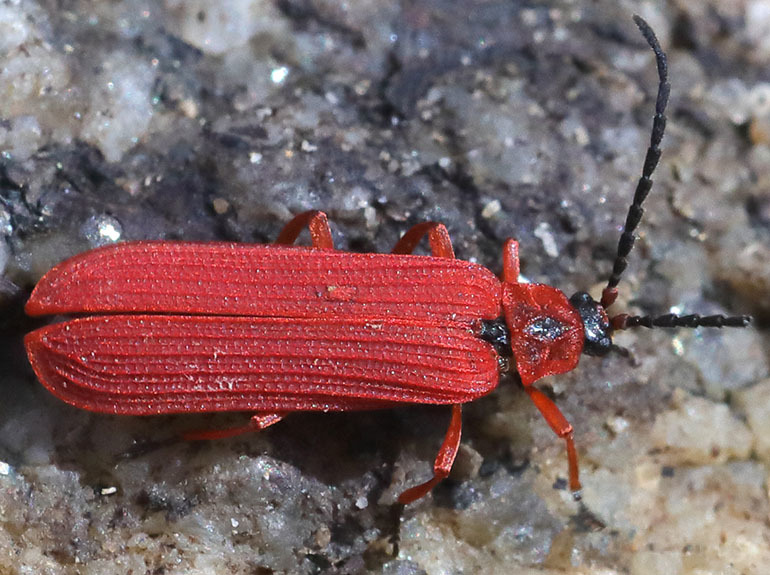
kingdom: Animalia
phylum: Arthropoda
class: Insecta
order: Coleoptera
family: Lycidae
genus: Dictyoptera
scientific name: Dictyoptera simplicipes
